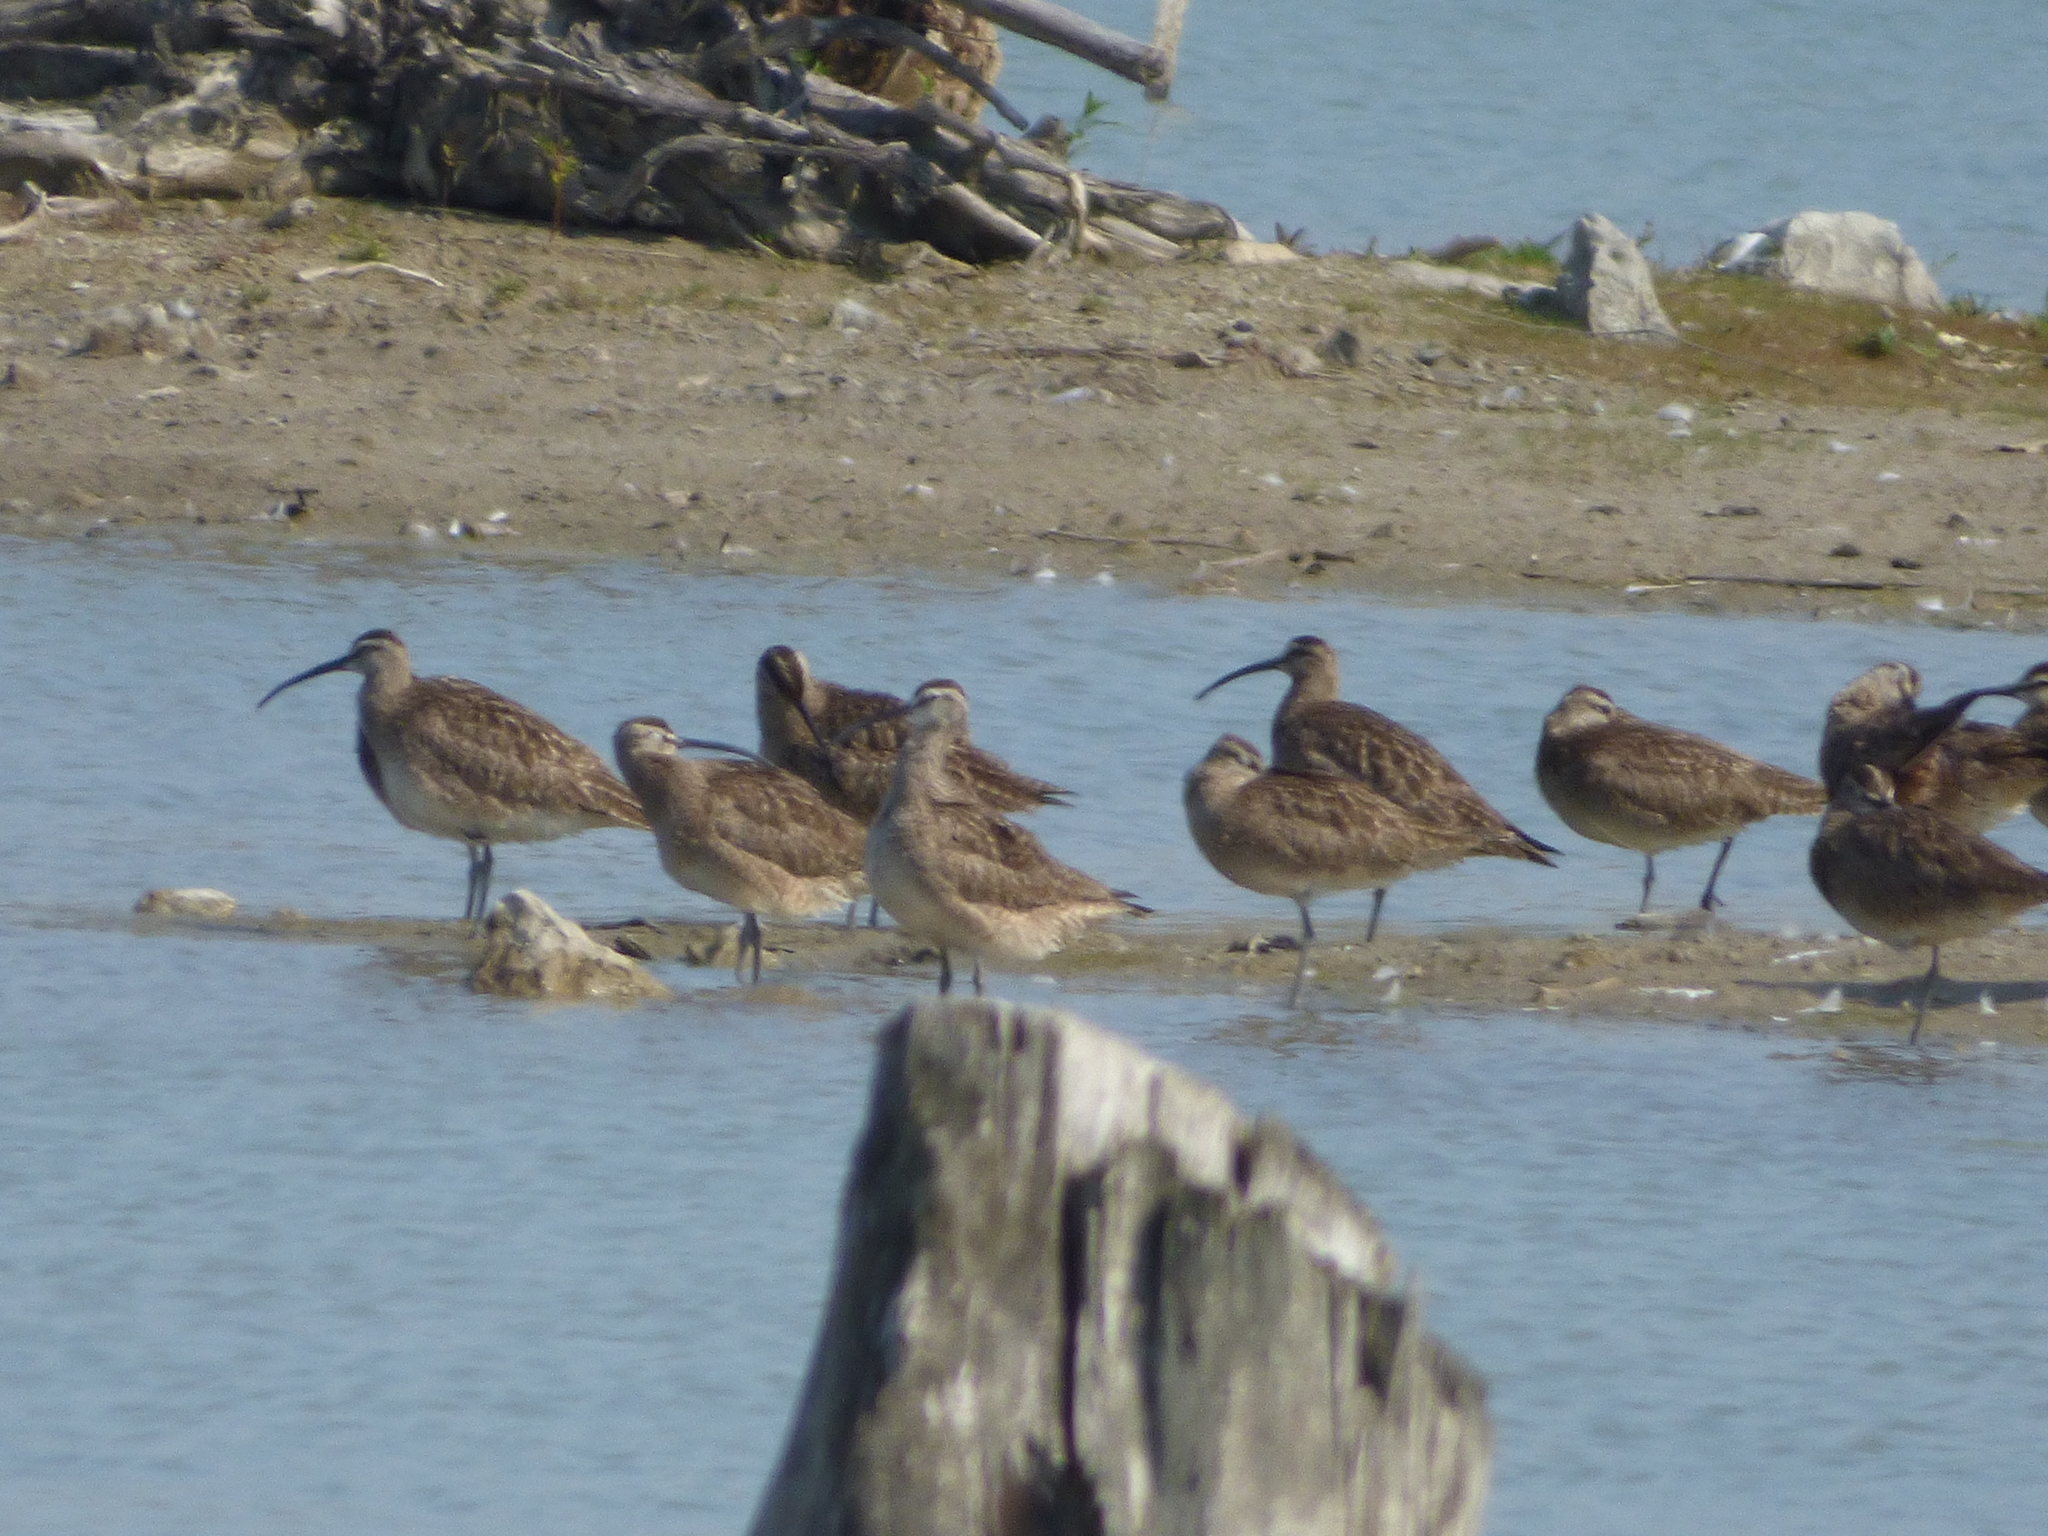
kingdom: Animalia
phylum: Chordata
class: Aves
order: Charadriiformes
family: Scolopacidae
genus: Numenius
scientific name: Numenius phaeopus
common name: Whimbrel
